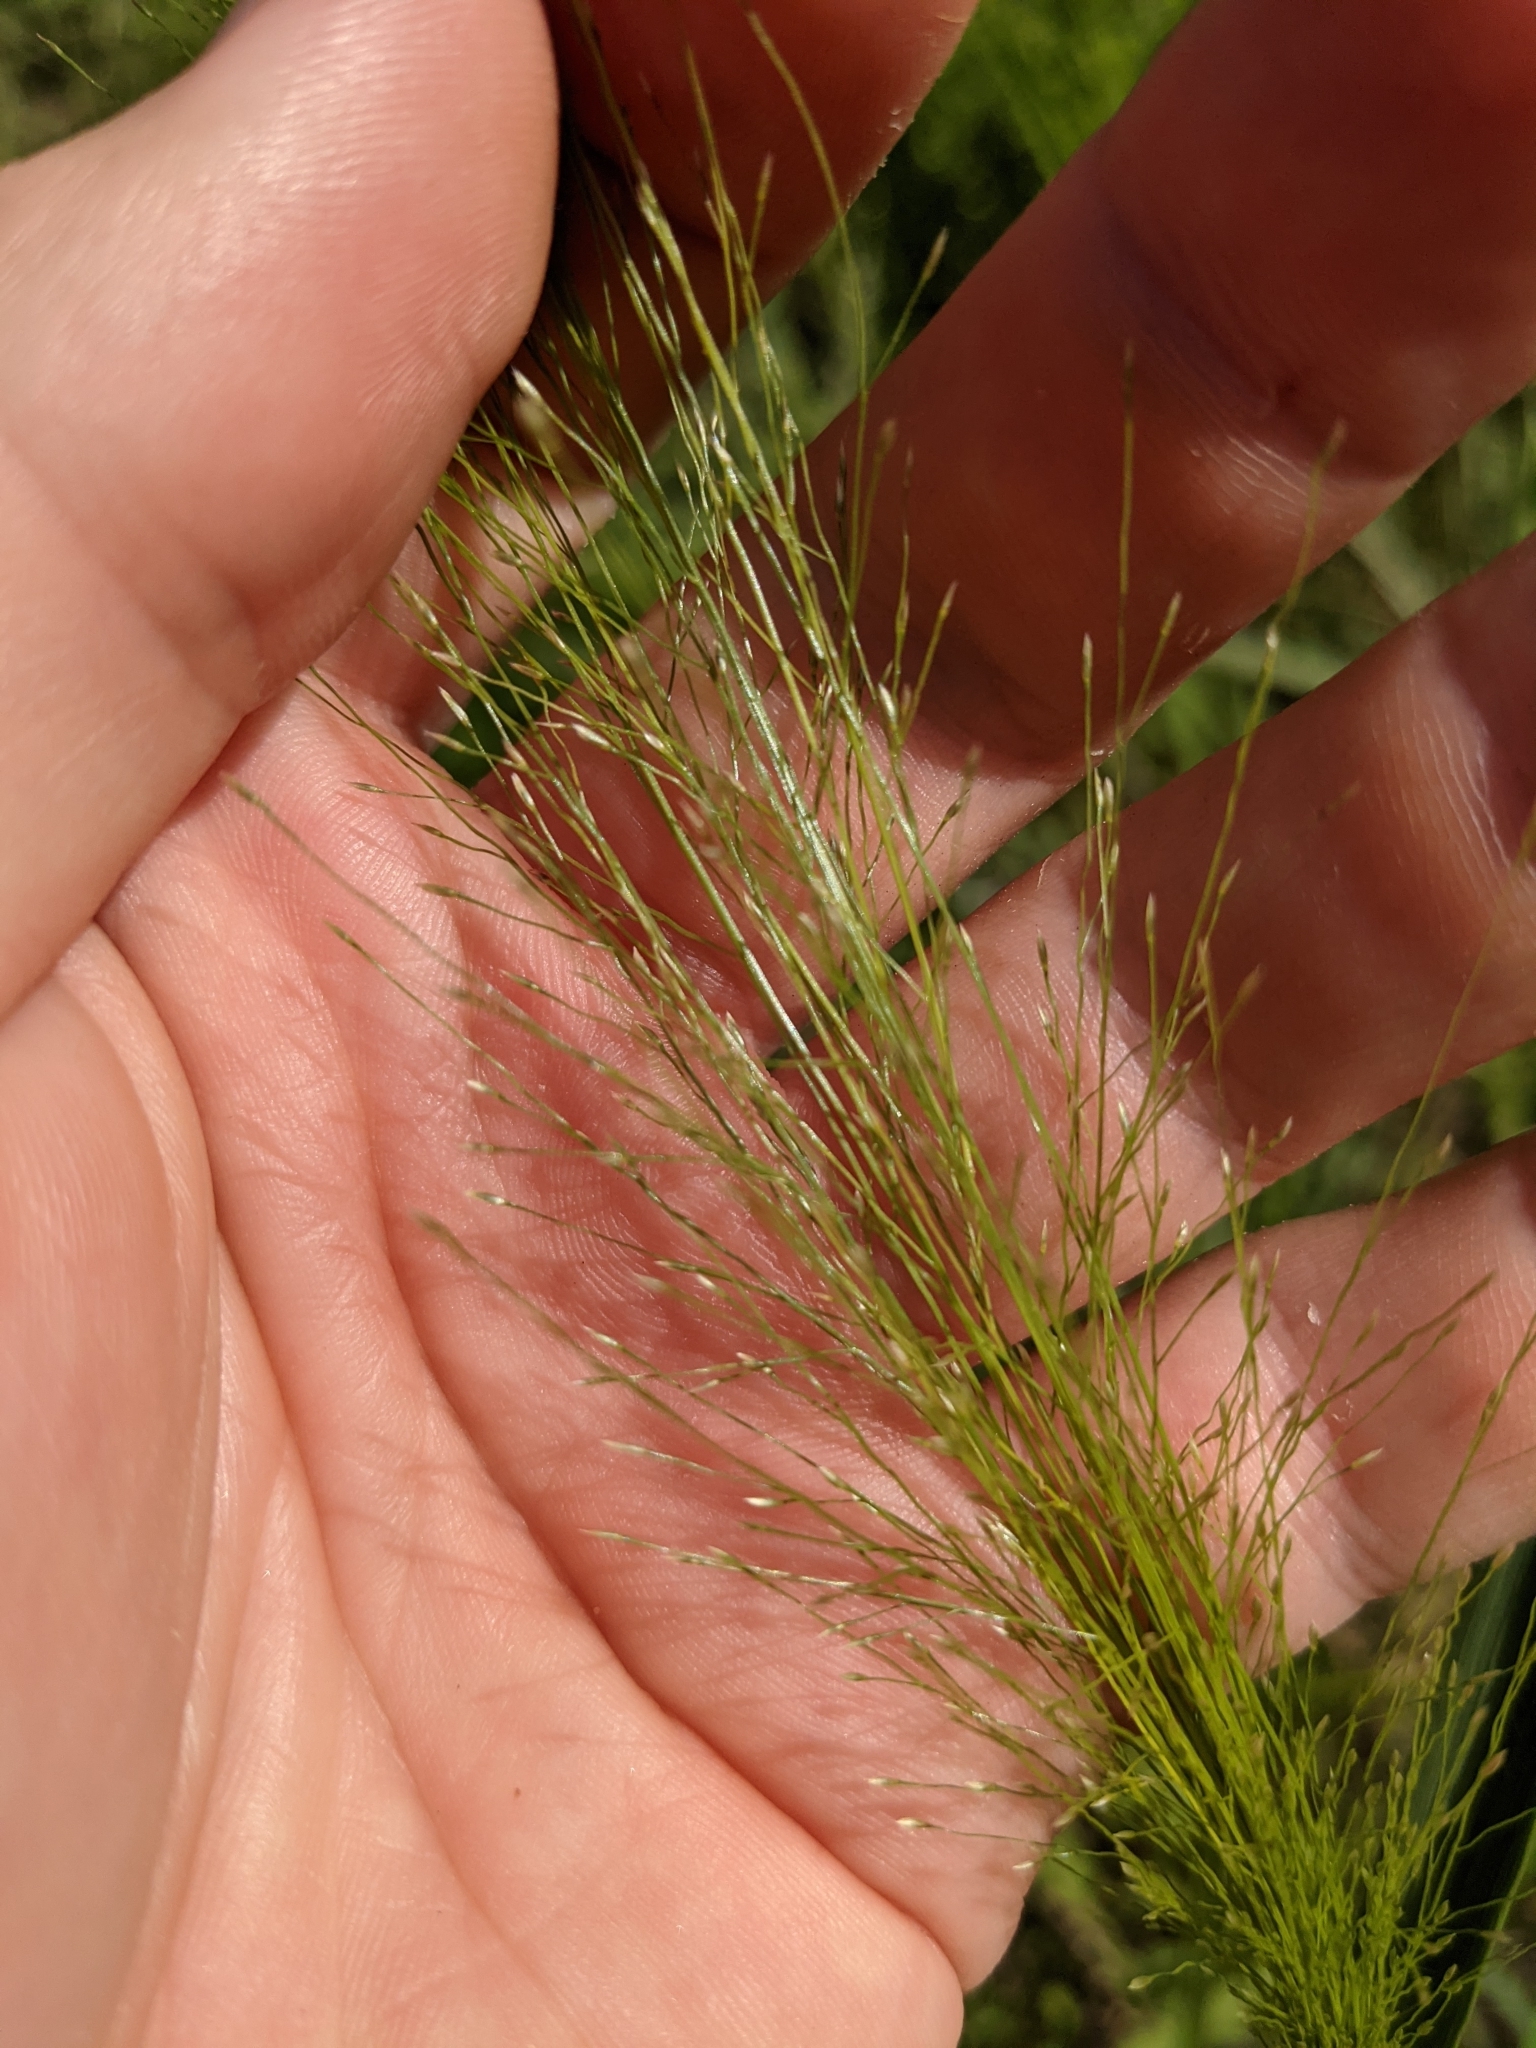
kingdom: Plantae
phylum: Tracheophyta
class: Liliopsida
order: Poales
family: Poaceae
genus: Eragrostis
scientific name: Eragrostis hirsuta
